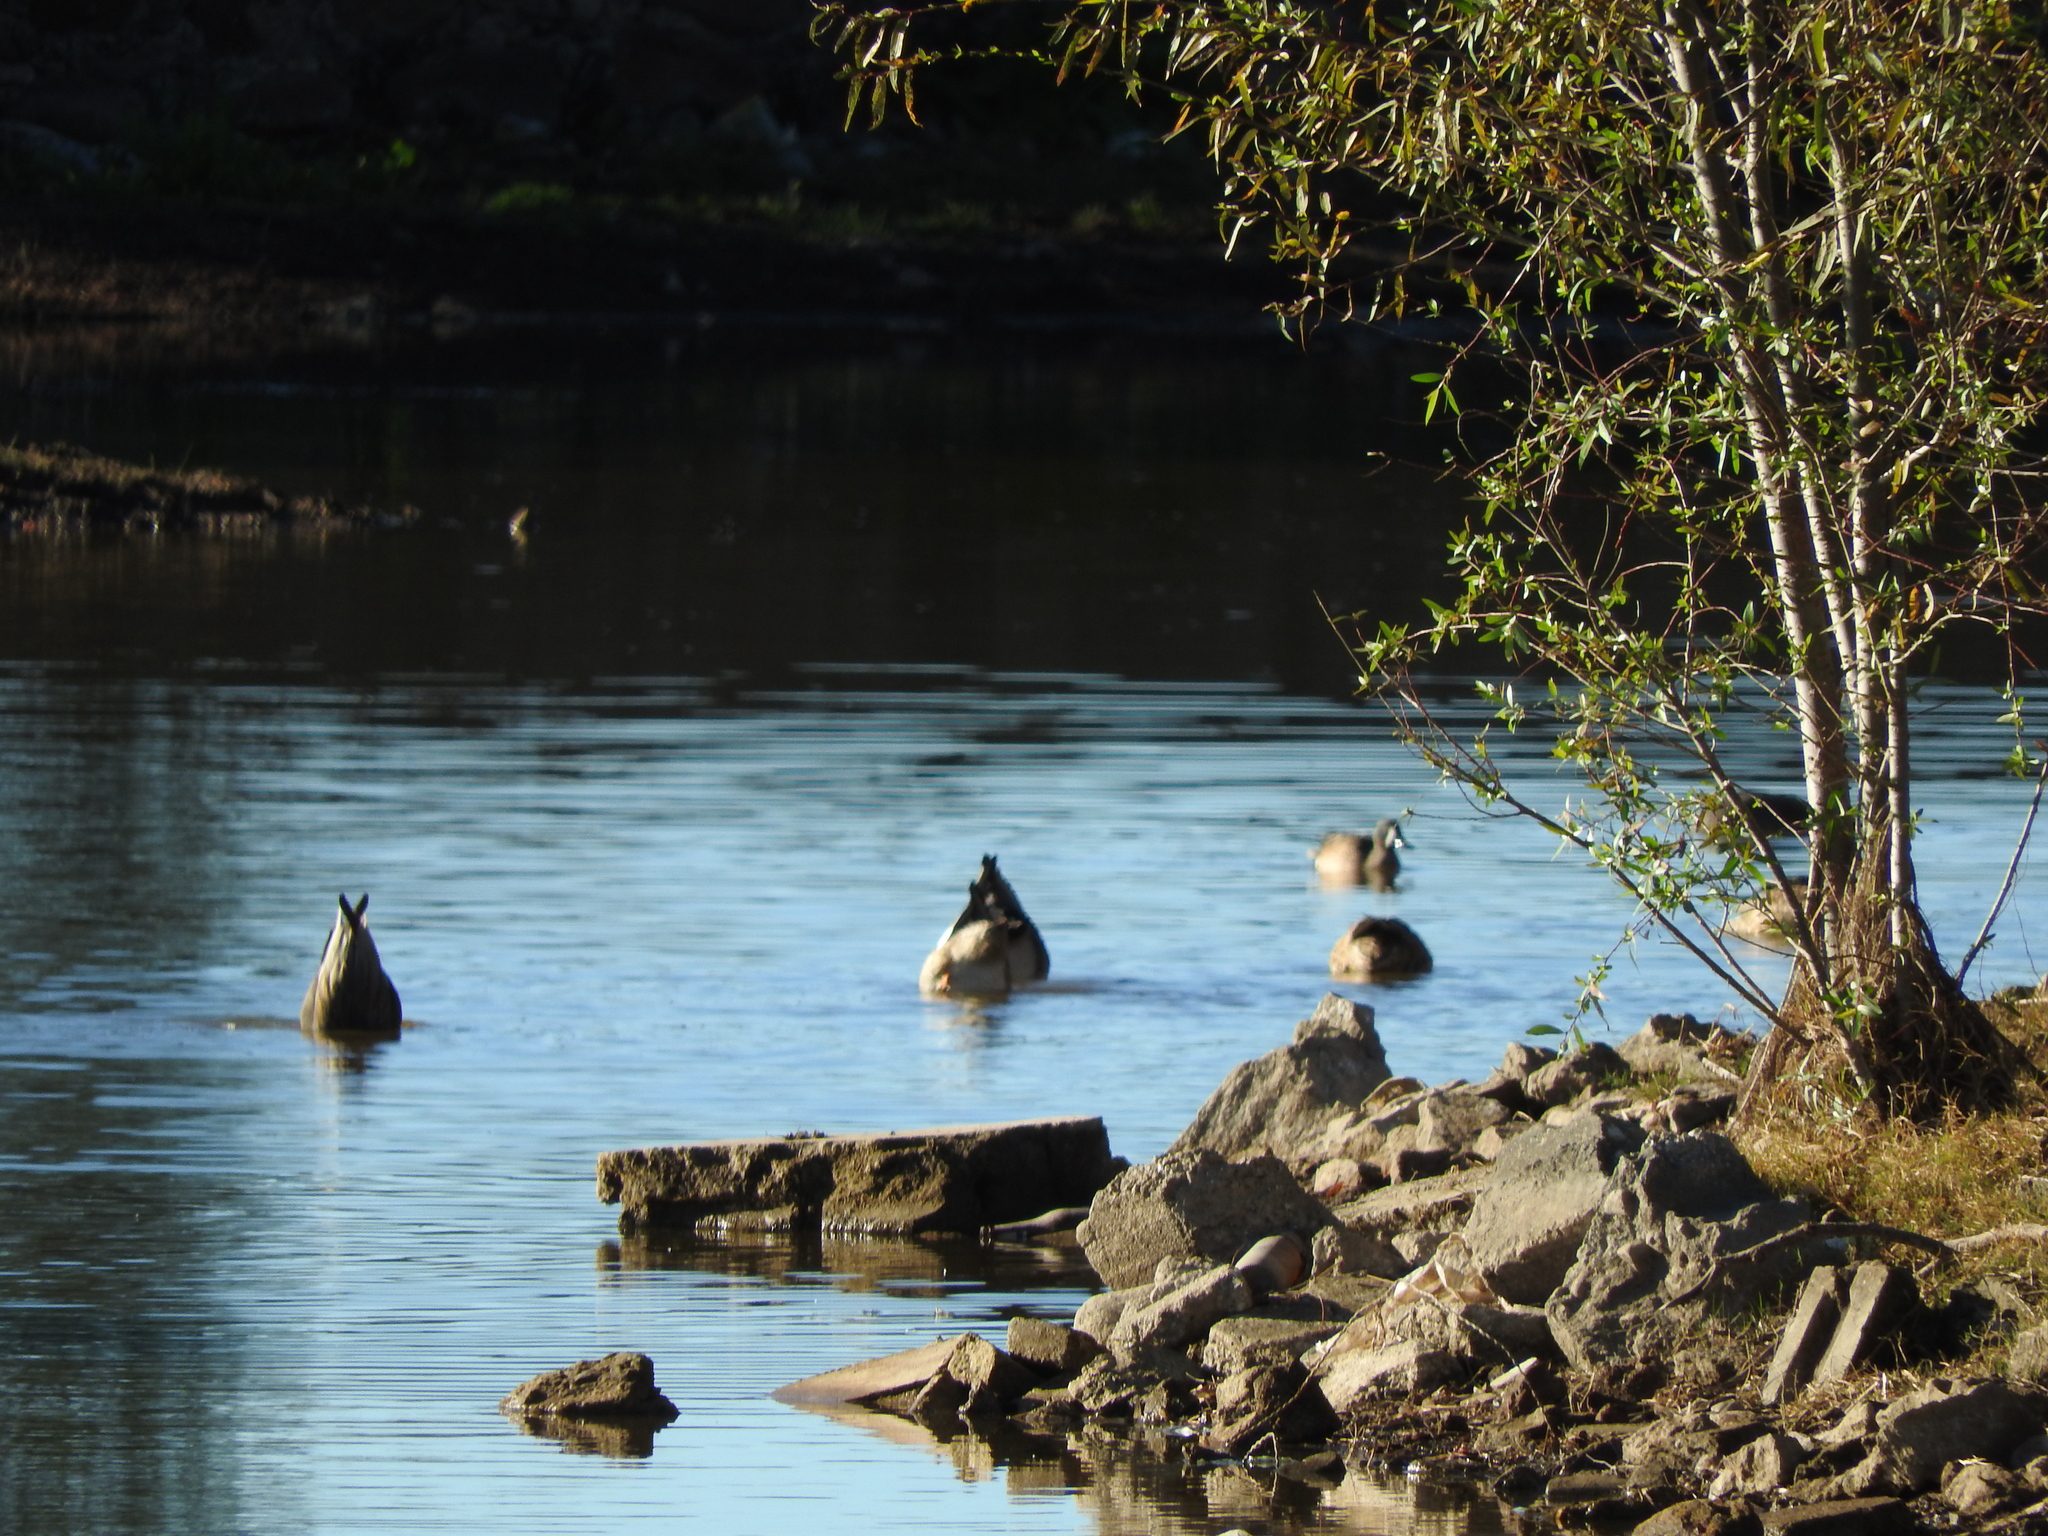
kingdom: Animalia
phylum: Chordata
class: Aves
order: Anseriformes
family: Anatidae
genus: Spatula
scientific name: Spatula discors
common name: Blue-winged teal
